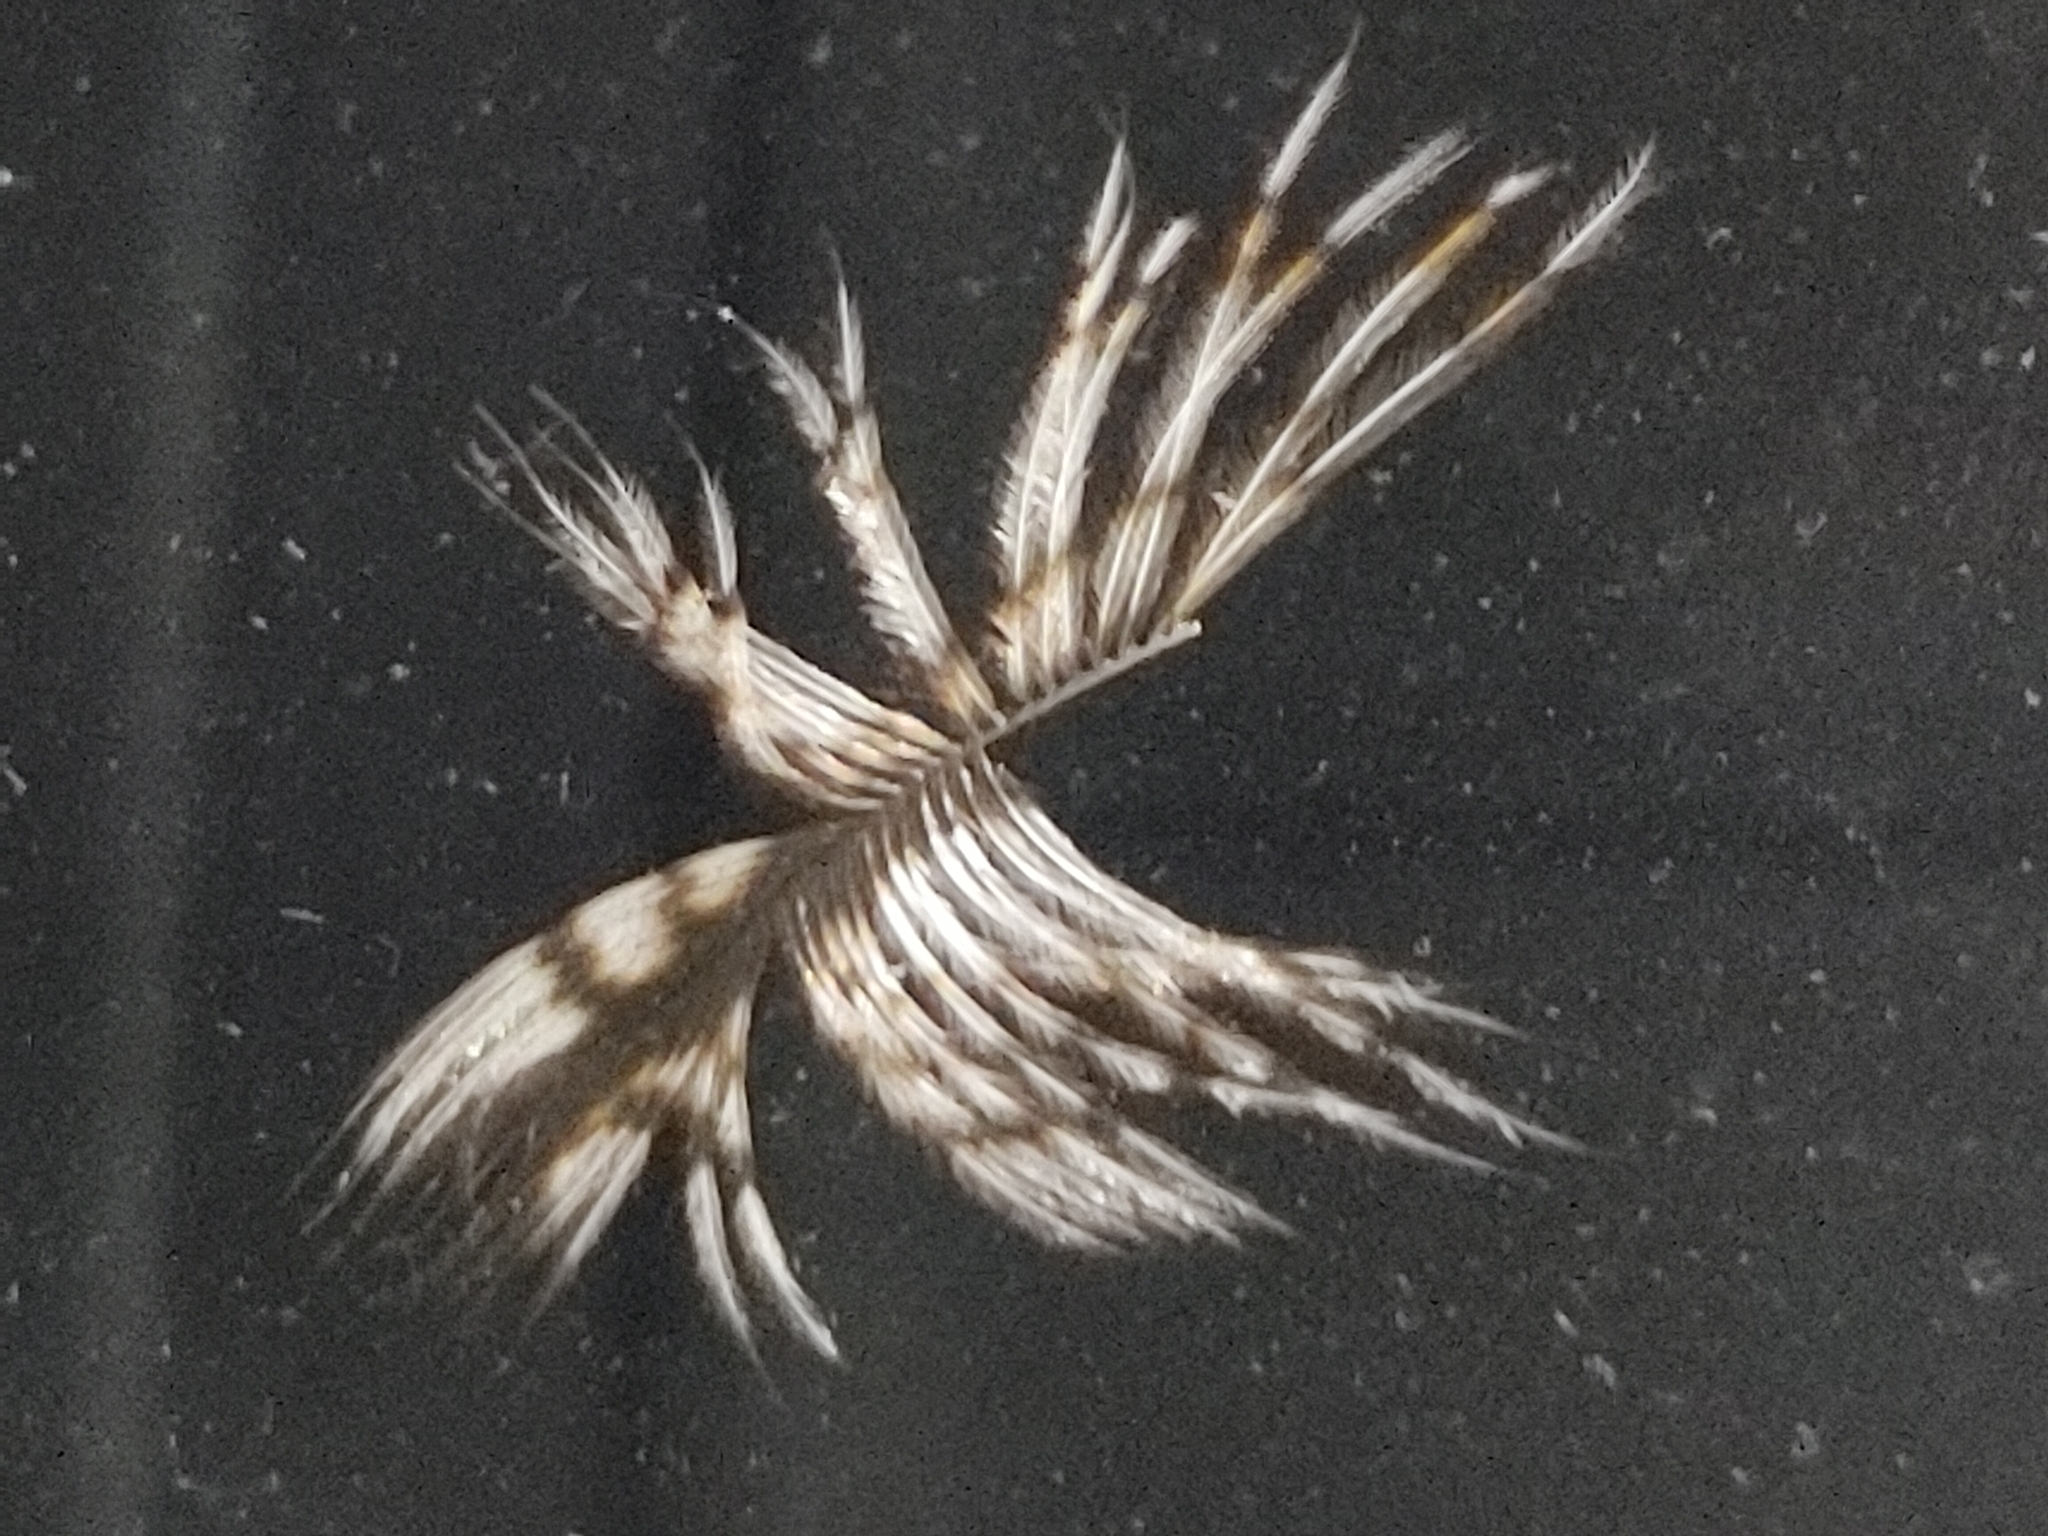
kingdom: Animalia
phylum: Chordata
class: Aves
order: Strigiformes
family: Strigidae
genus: Megascops
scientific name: Megascops asio
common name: Eastern screech-owl
